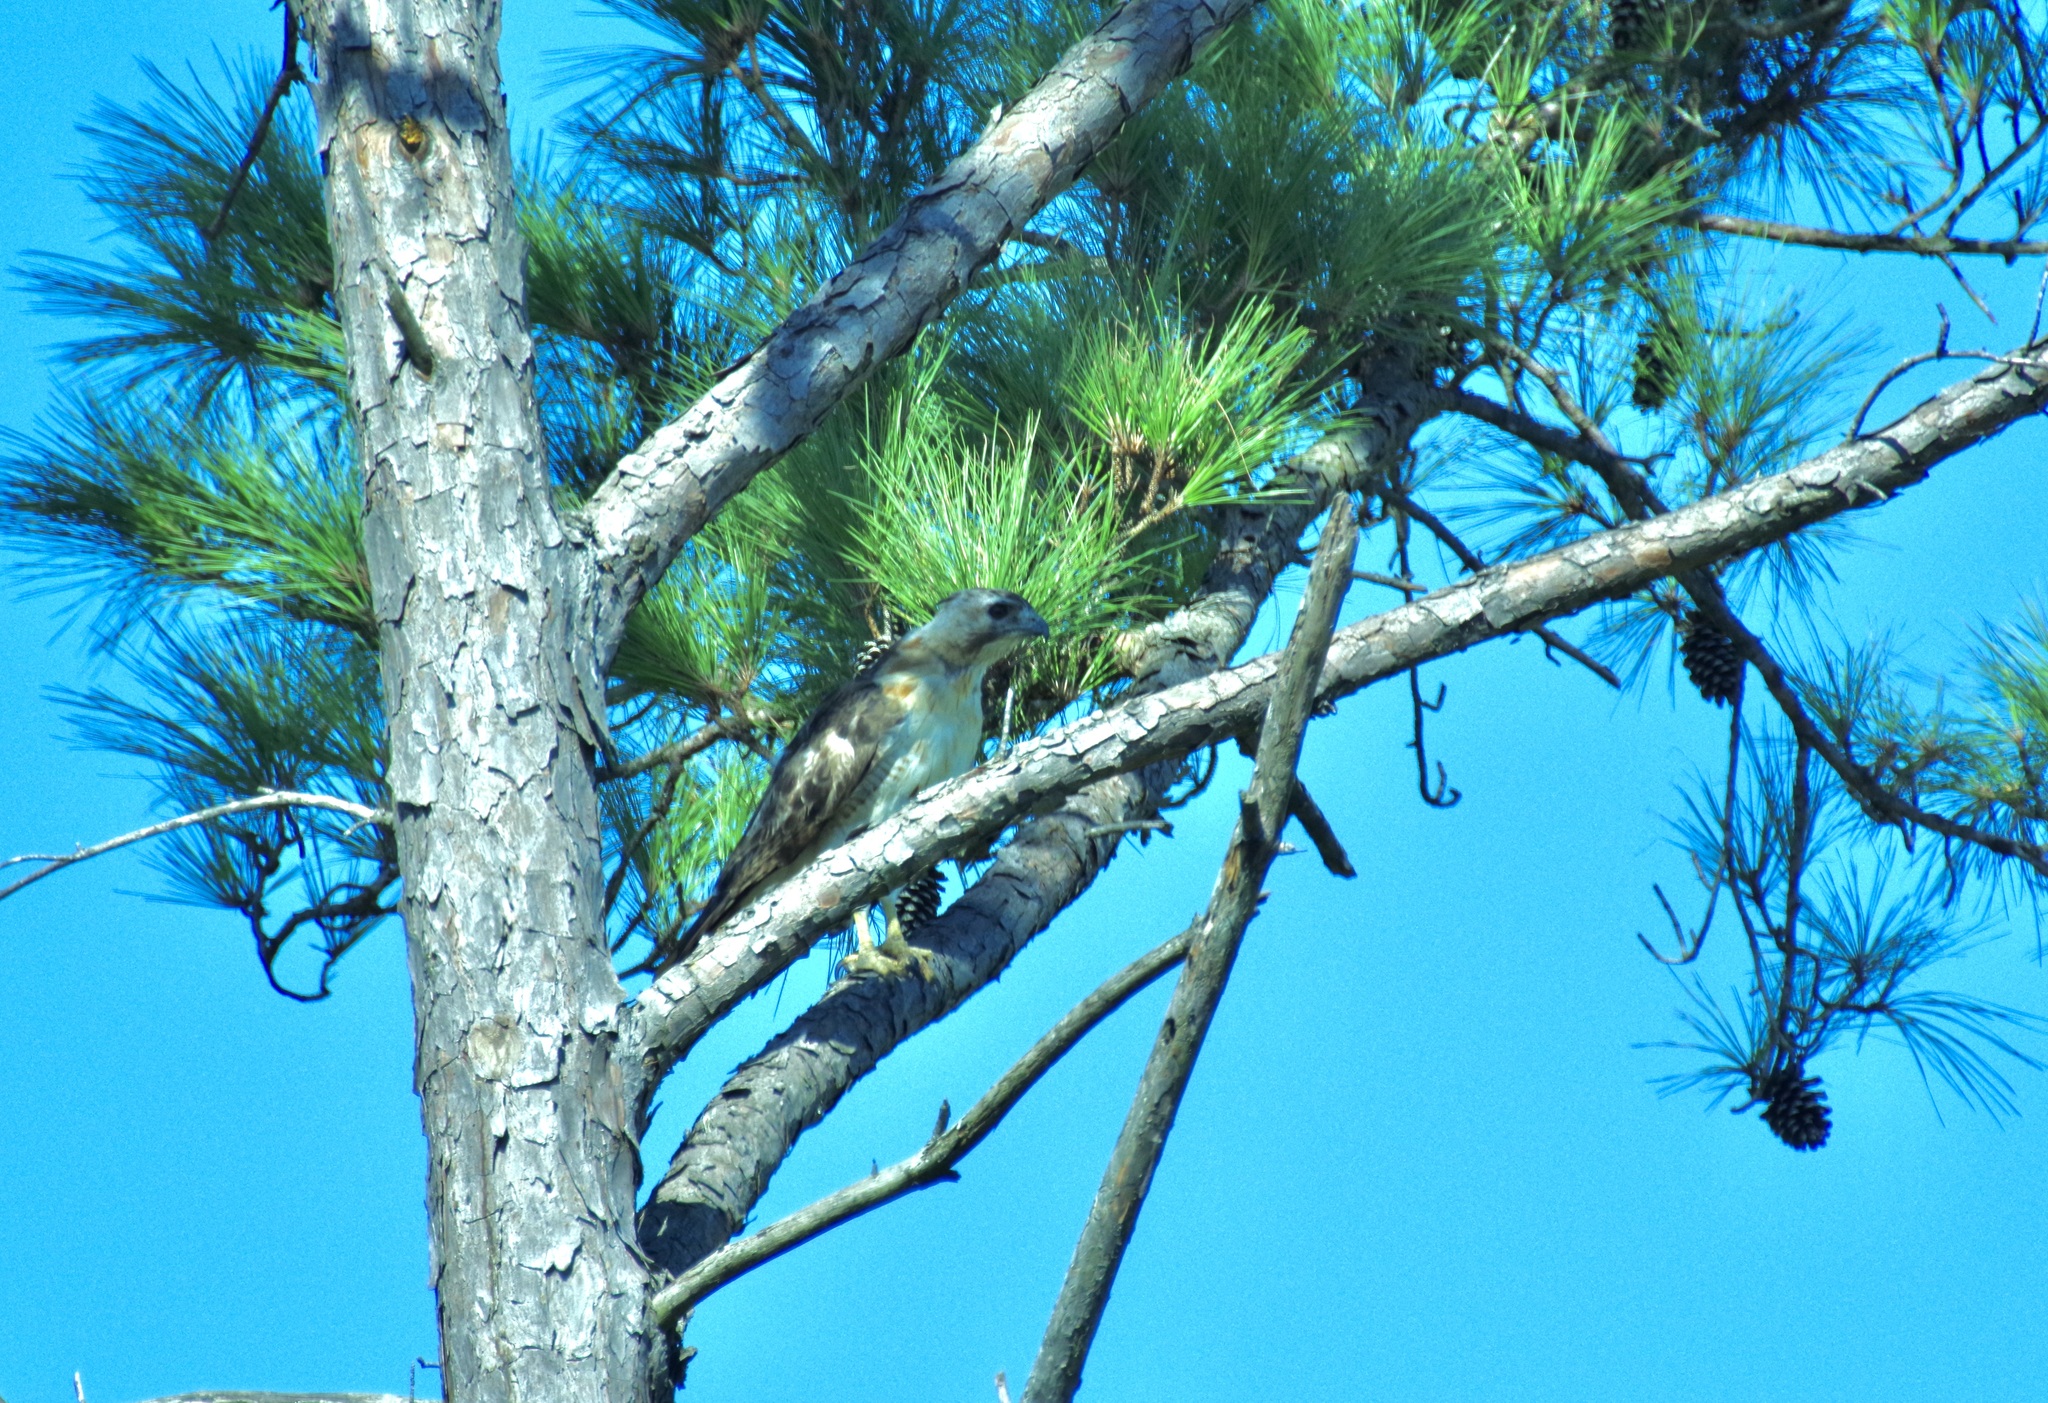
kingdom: Animalia
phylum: Chordata
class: Aves
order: Accipitriformes
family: Accipitridae
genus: Buteo
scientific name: Buteo jamaicensis
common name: Red-tailed hawk
